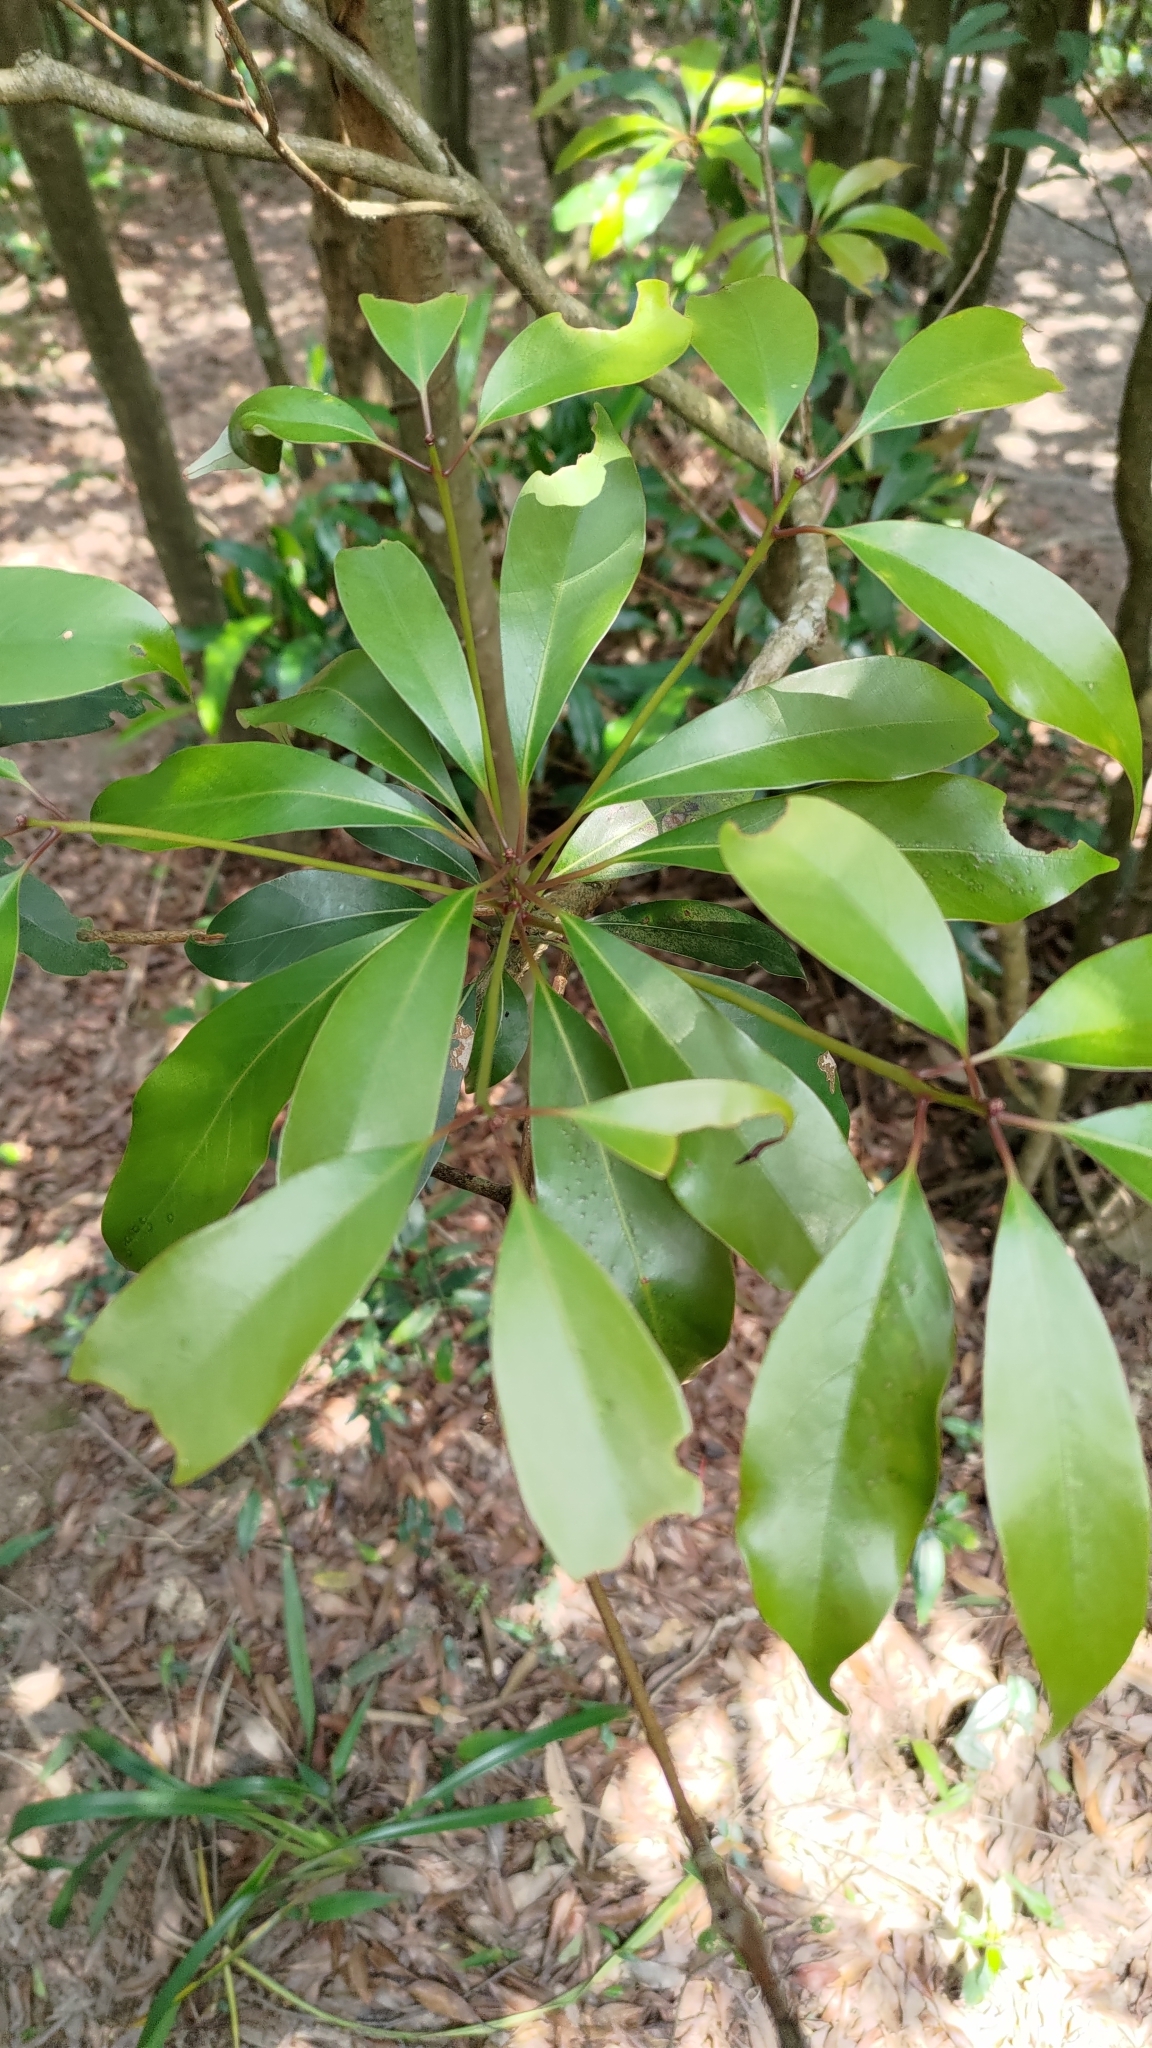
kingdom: Plantae
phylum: Tracheophyta
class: Magnoliopsida
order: Laurales
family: Lauraceae
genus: Machilus
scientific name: Machilus thunbergii
